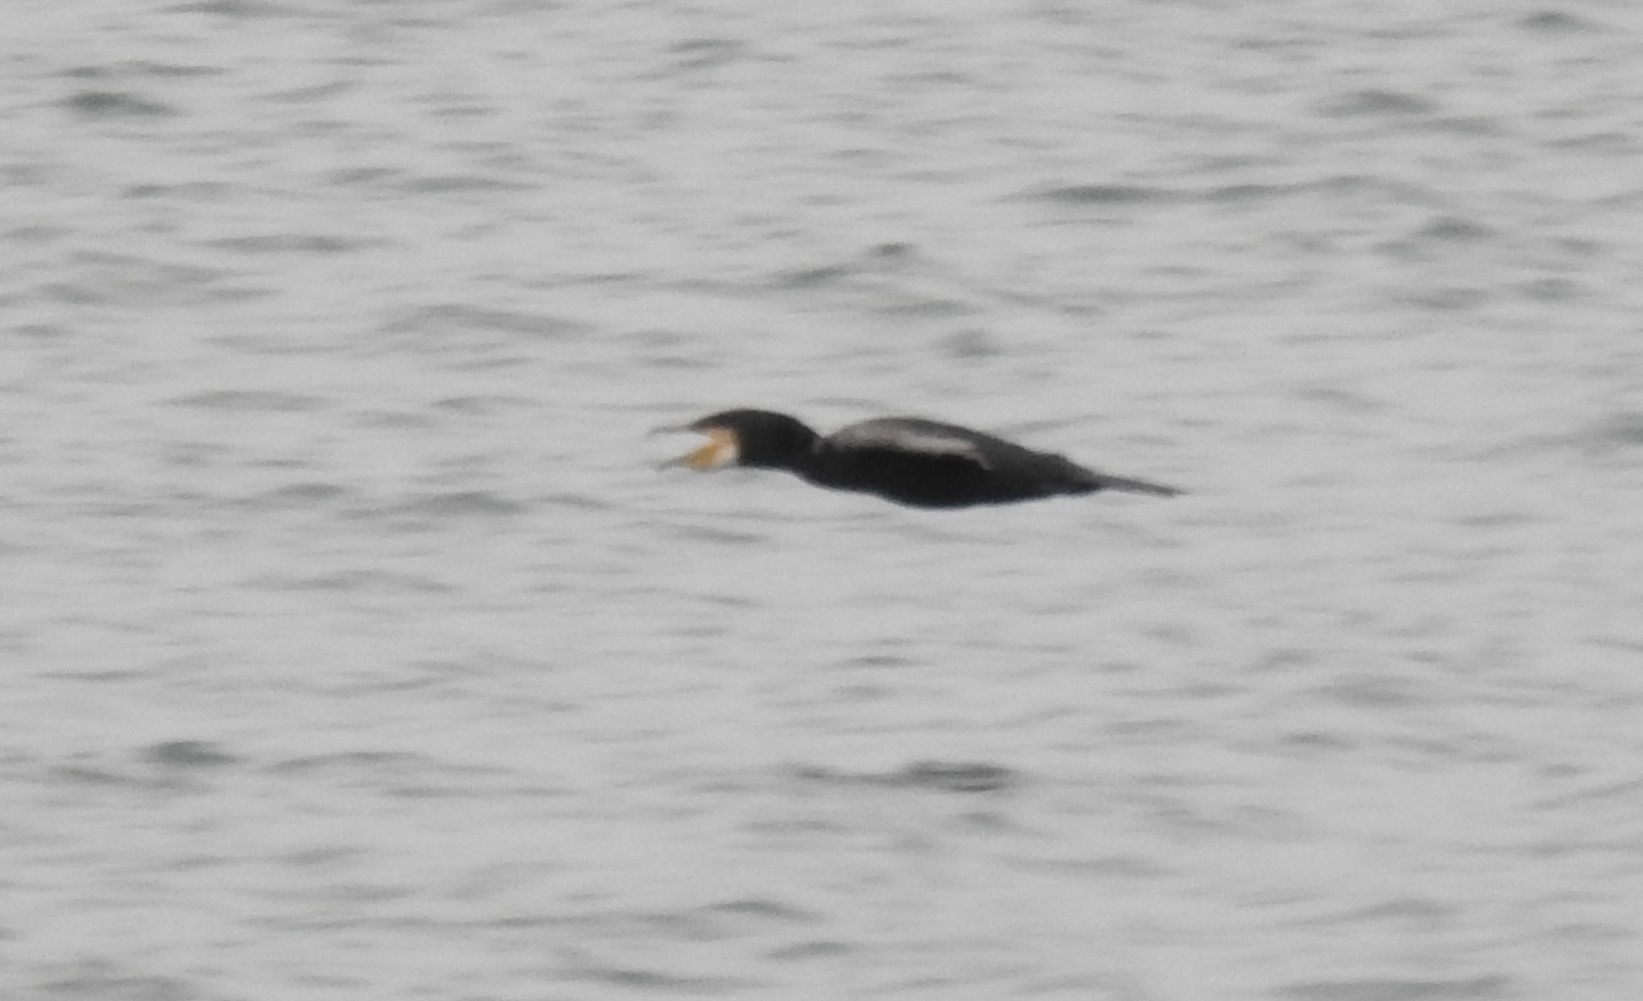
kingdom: Animalia
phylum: Chordata
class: Aves
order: Suliformes
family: Phalacrocoracidae
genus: Phalacrocorax
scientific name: Phalacrocorax carbo
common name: Great cormorant
